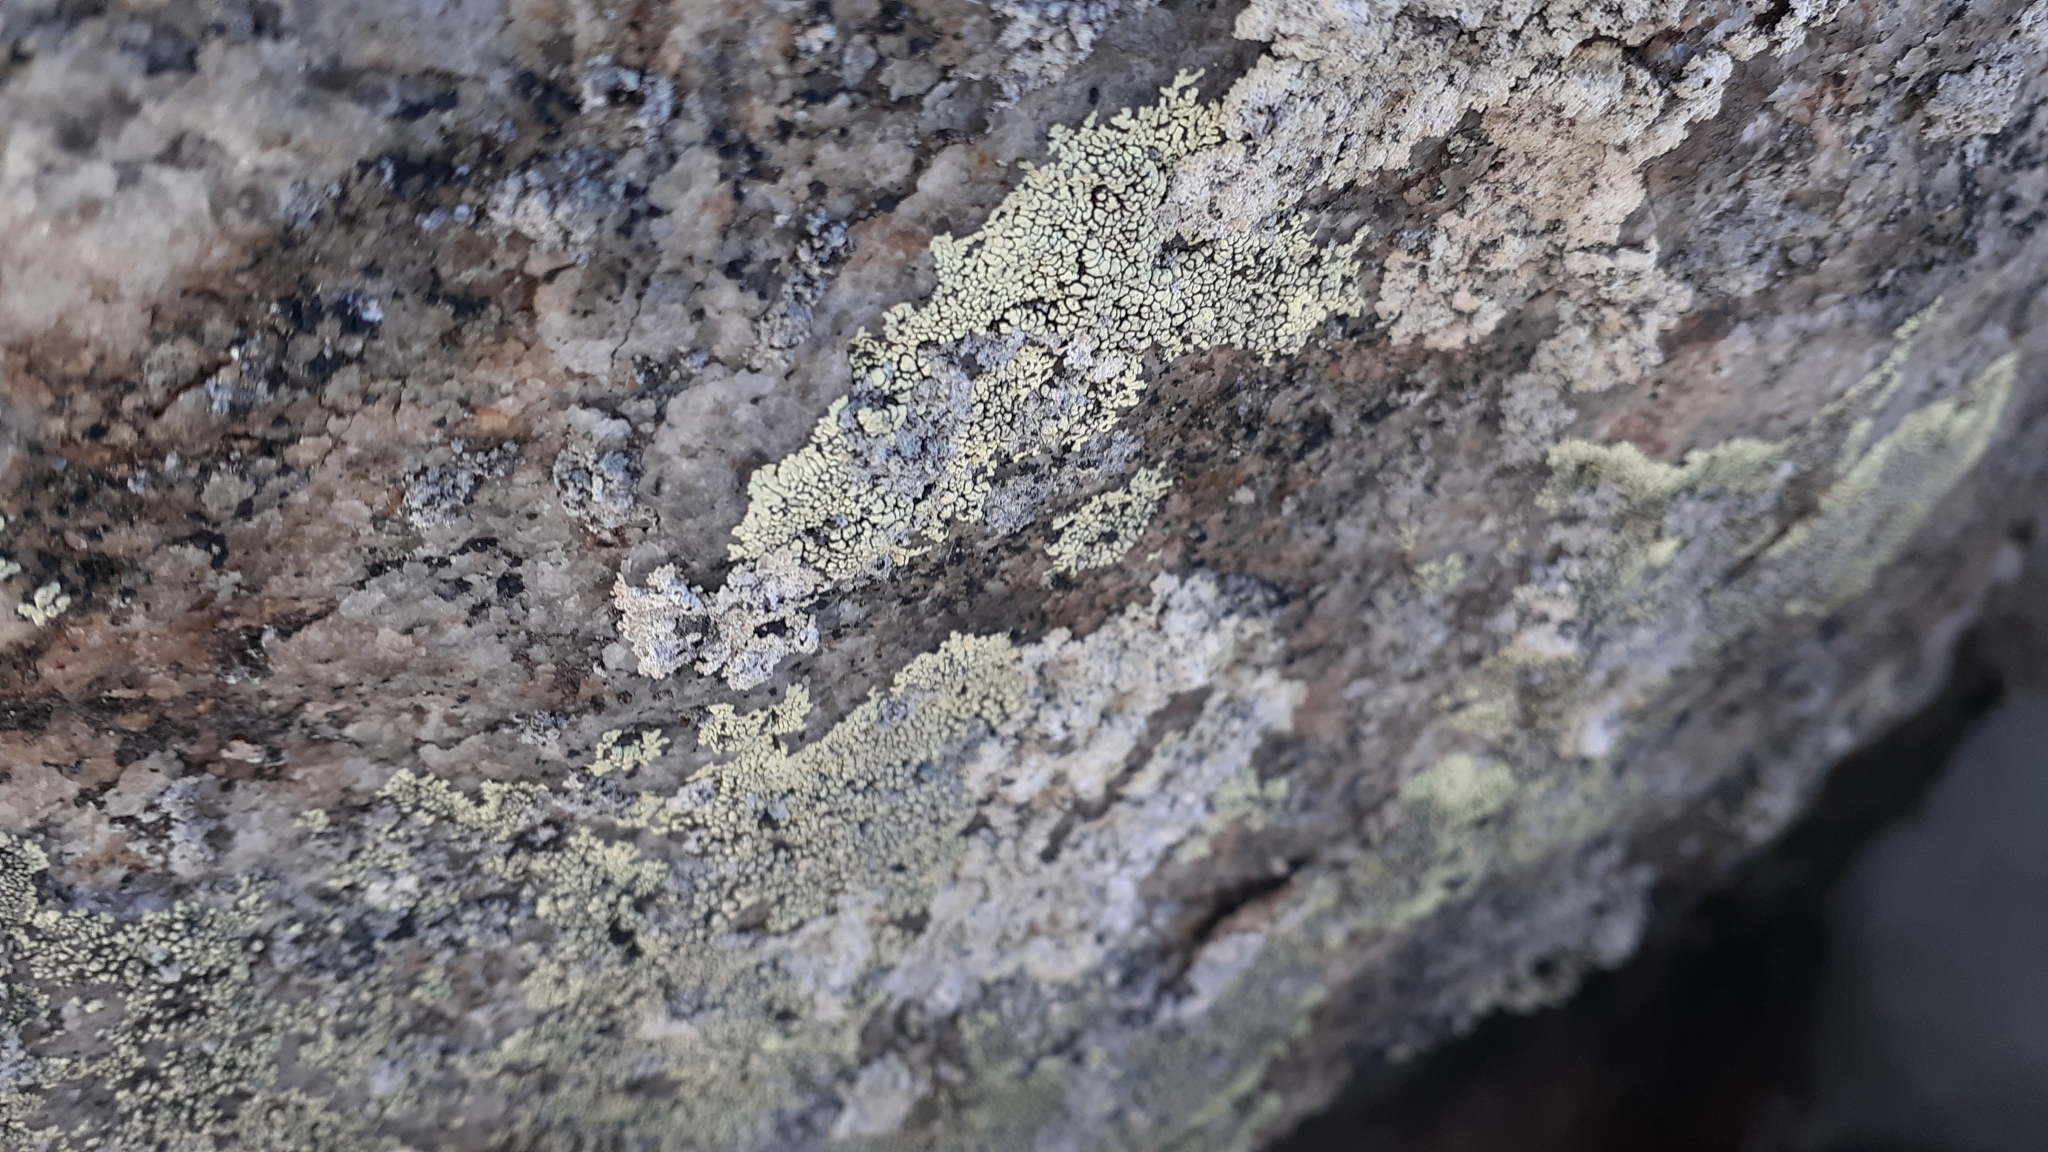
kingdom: Fungi
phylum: Ascomycota
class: Lecanoromycetes
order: Caliciales
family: Caliciaceae
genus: Dimelaena
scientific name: Dimelaena oreina
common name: Golden moonglow lichen
